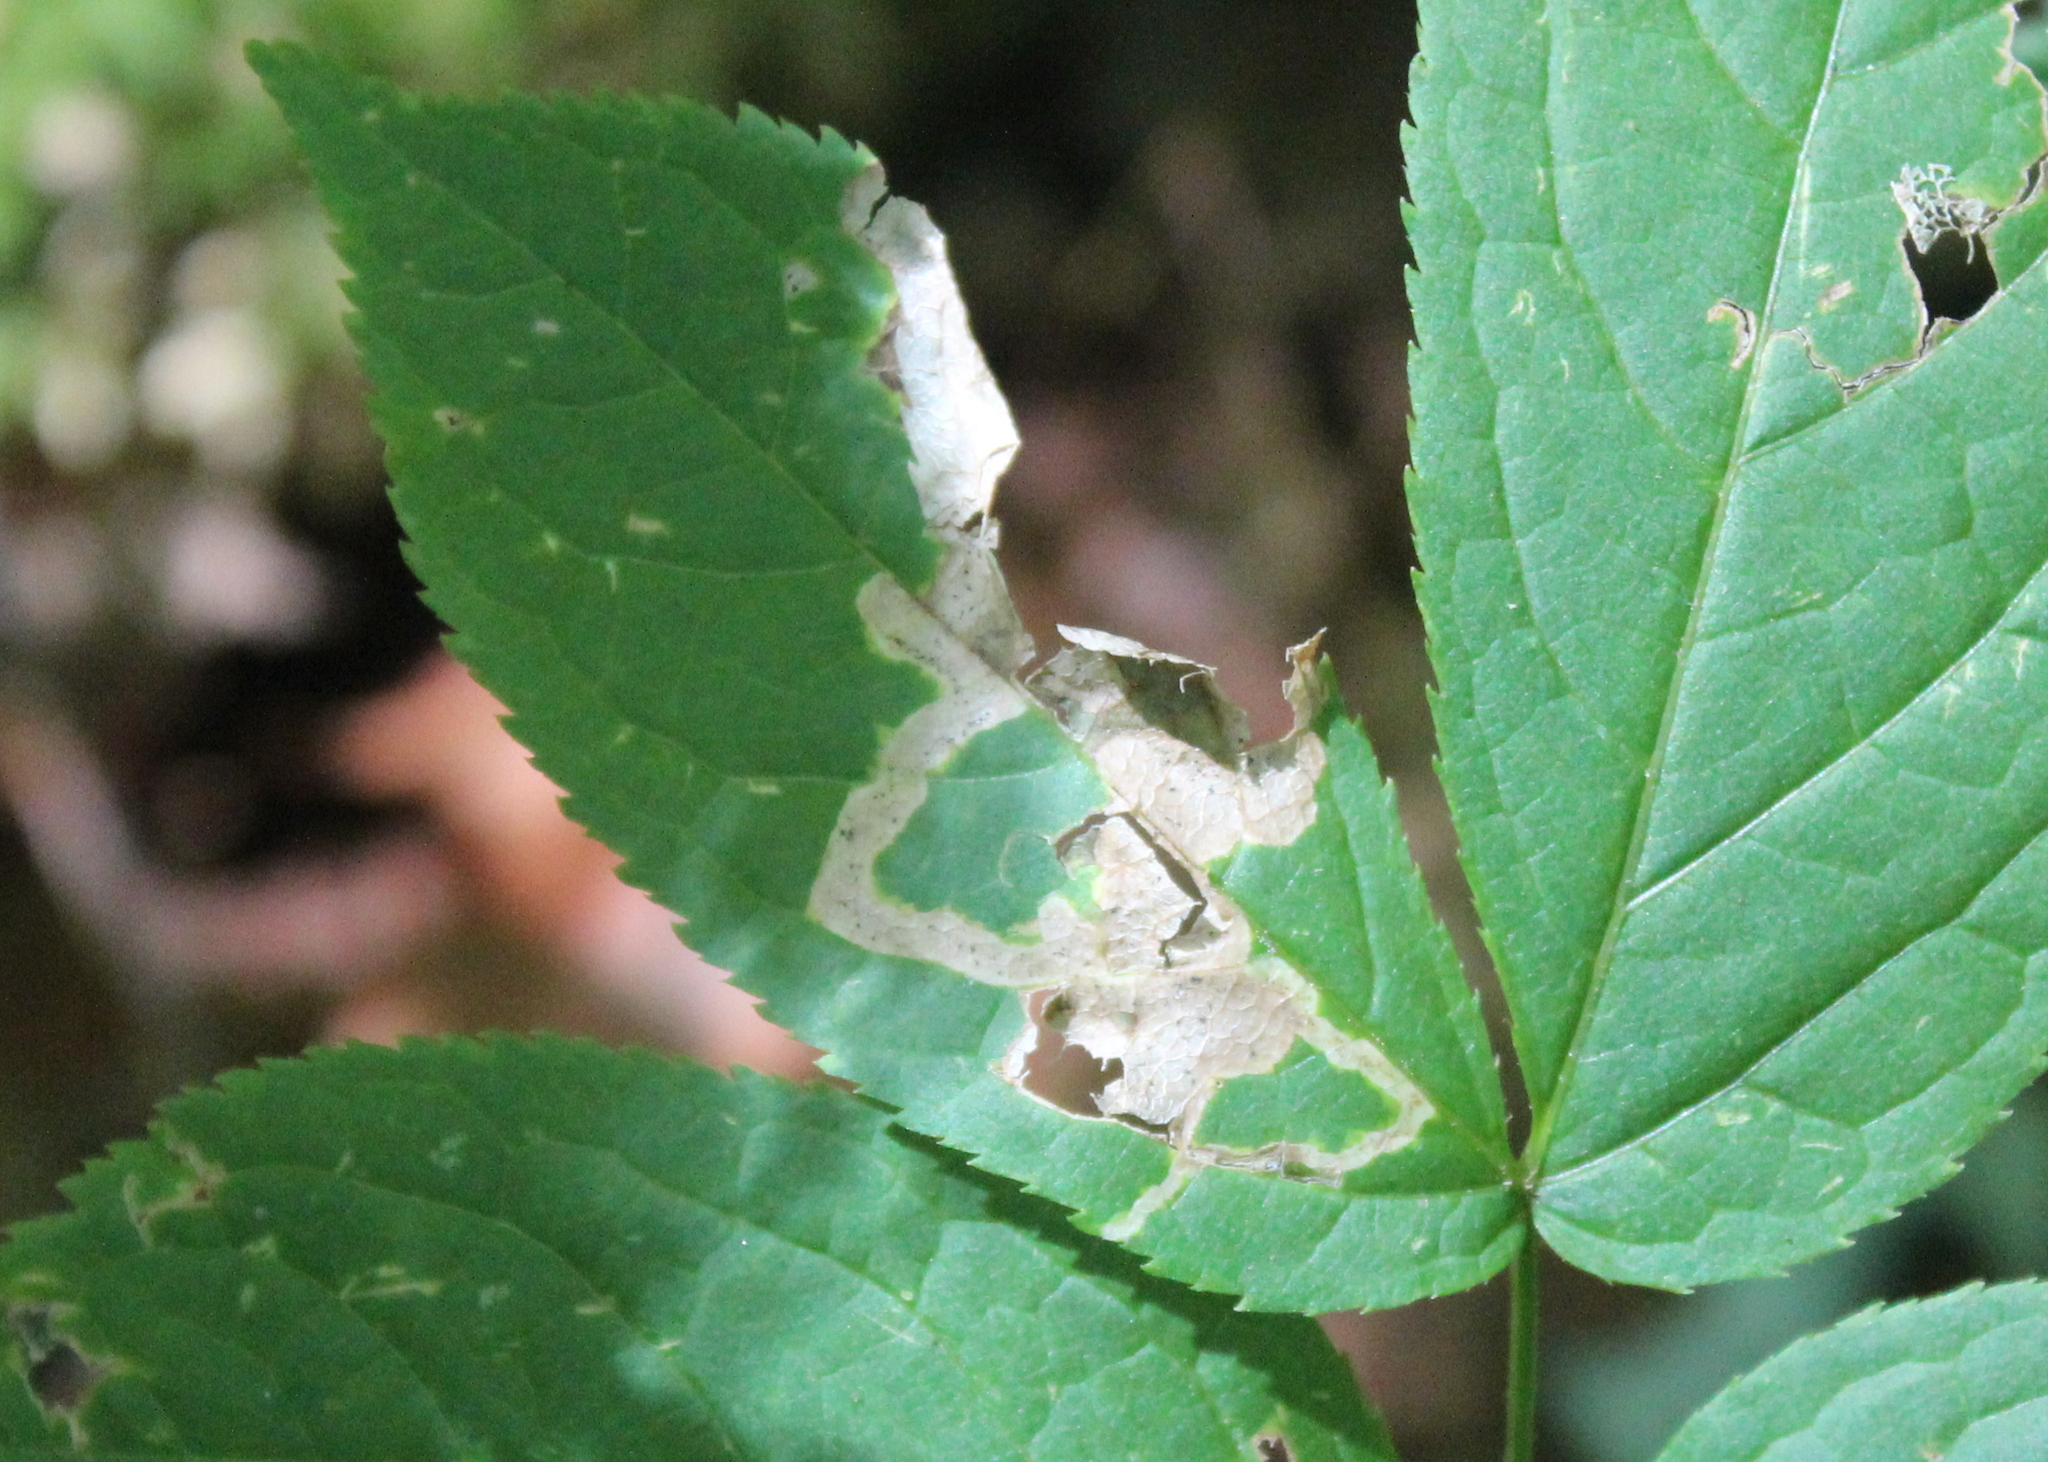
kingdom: Animalia
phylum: Arthropoda
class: Insecta
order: Diptera
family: Agromyzidae
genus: Phytomyza
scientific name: Phytomyza aralivora
